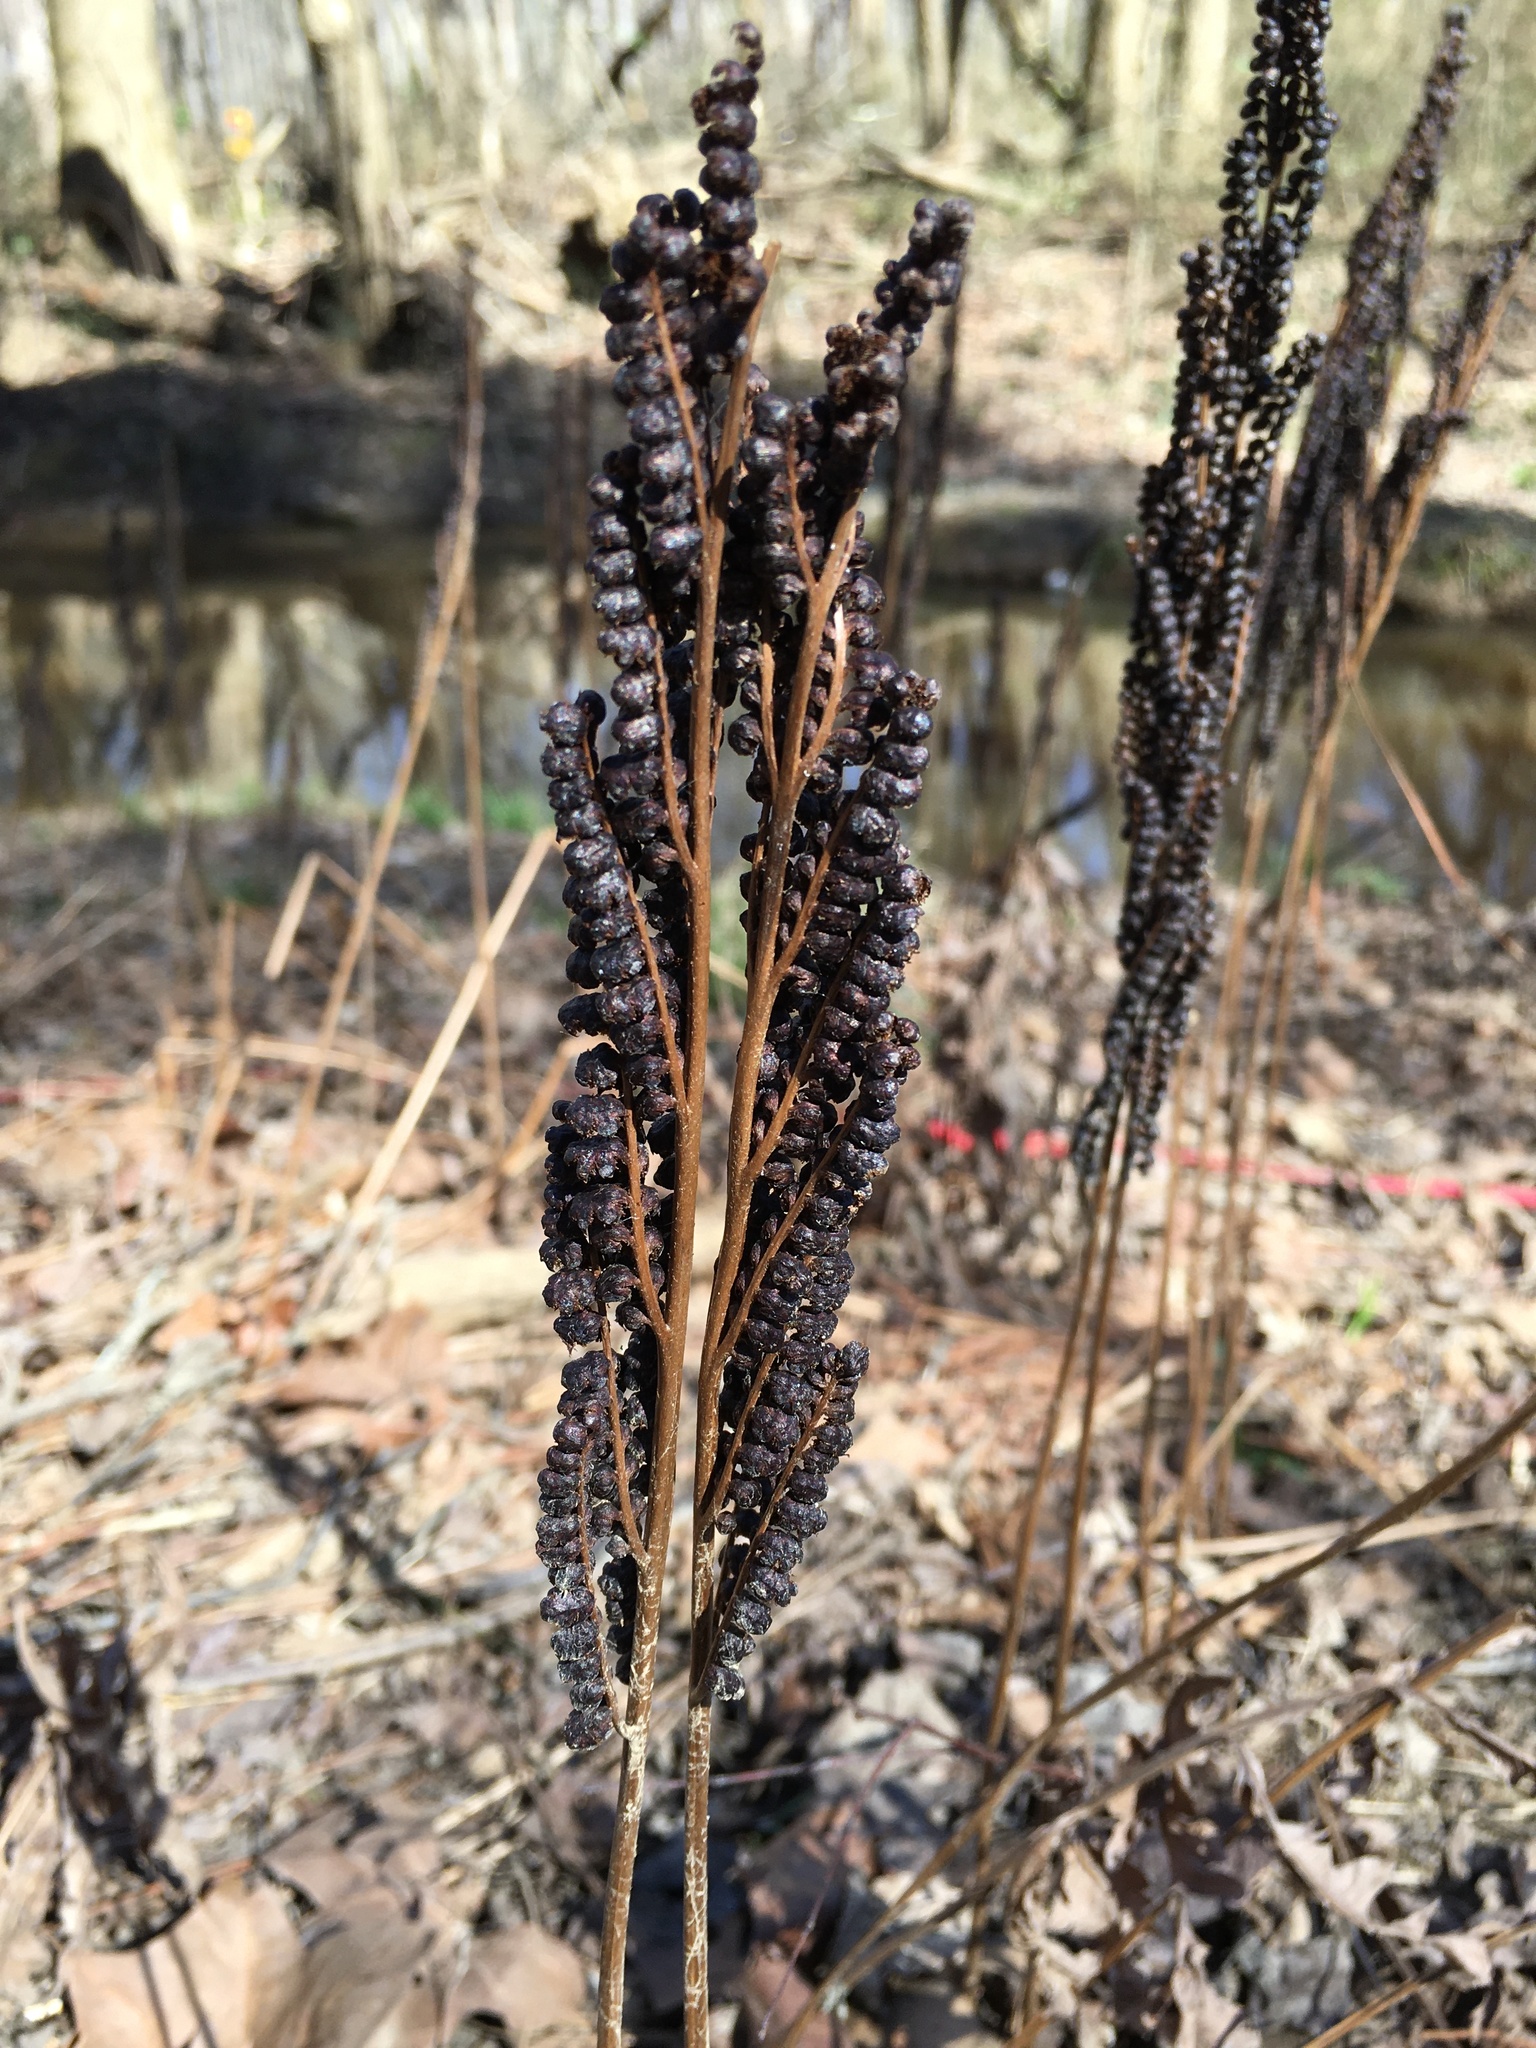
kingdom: Plantae
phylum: Tracheophyta
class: Polypodiopsida
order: Polypodiales
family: Onocleaceae
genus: Onoclea
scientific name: Onoclea sensibilis
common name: Sensitive fern
